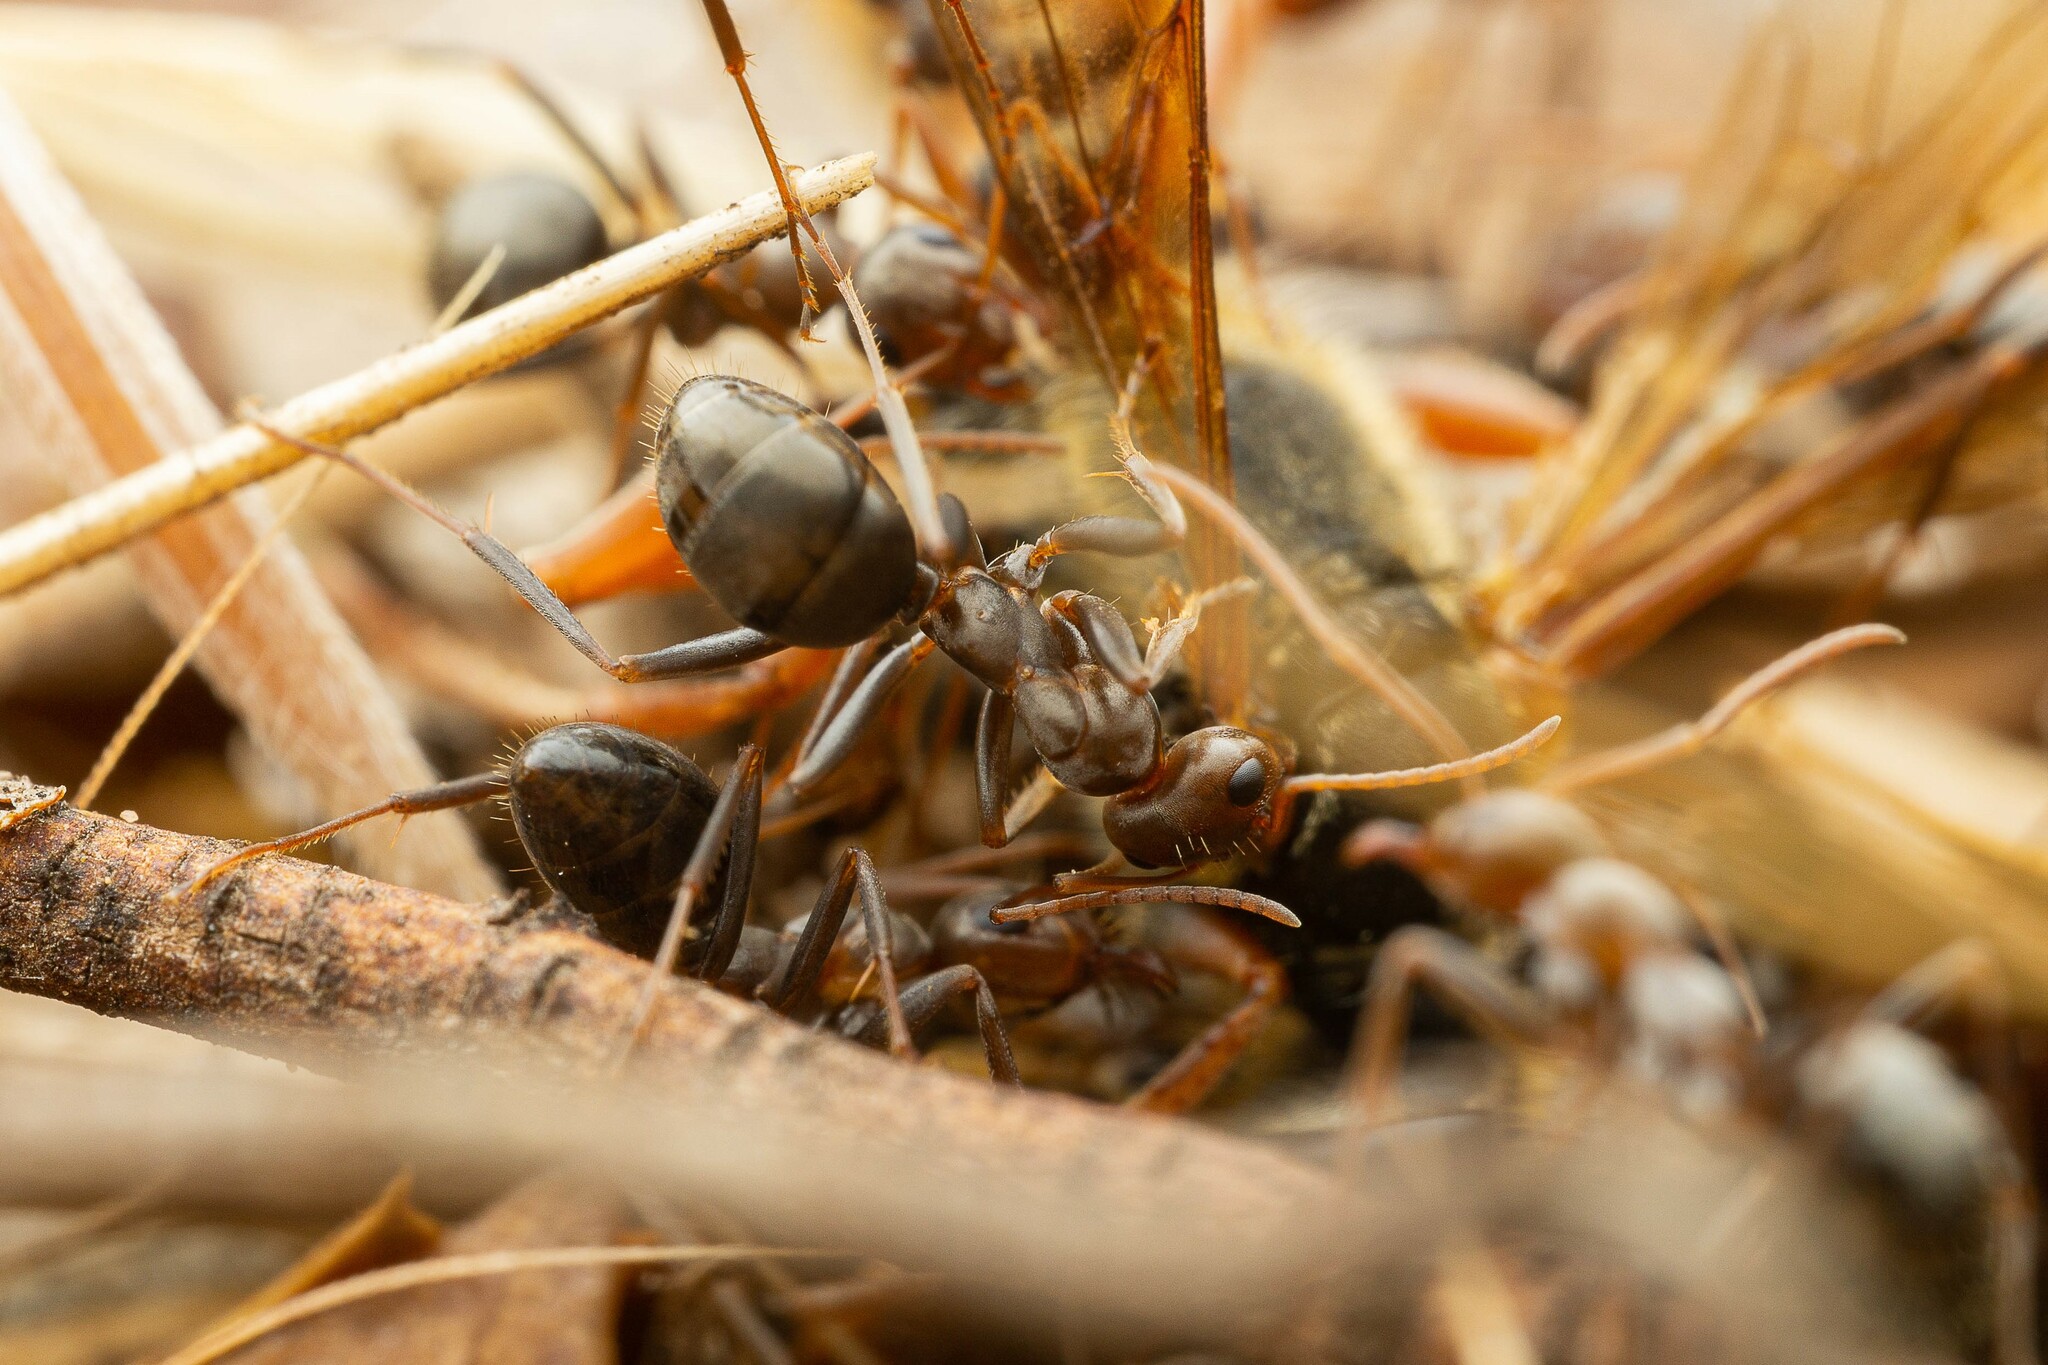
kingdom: Animalia
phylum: Arthropoda
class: Insecta
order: Hymenoptera
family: Formicidae
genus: Formica
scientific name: Formica gnava
